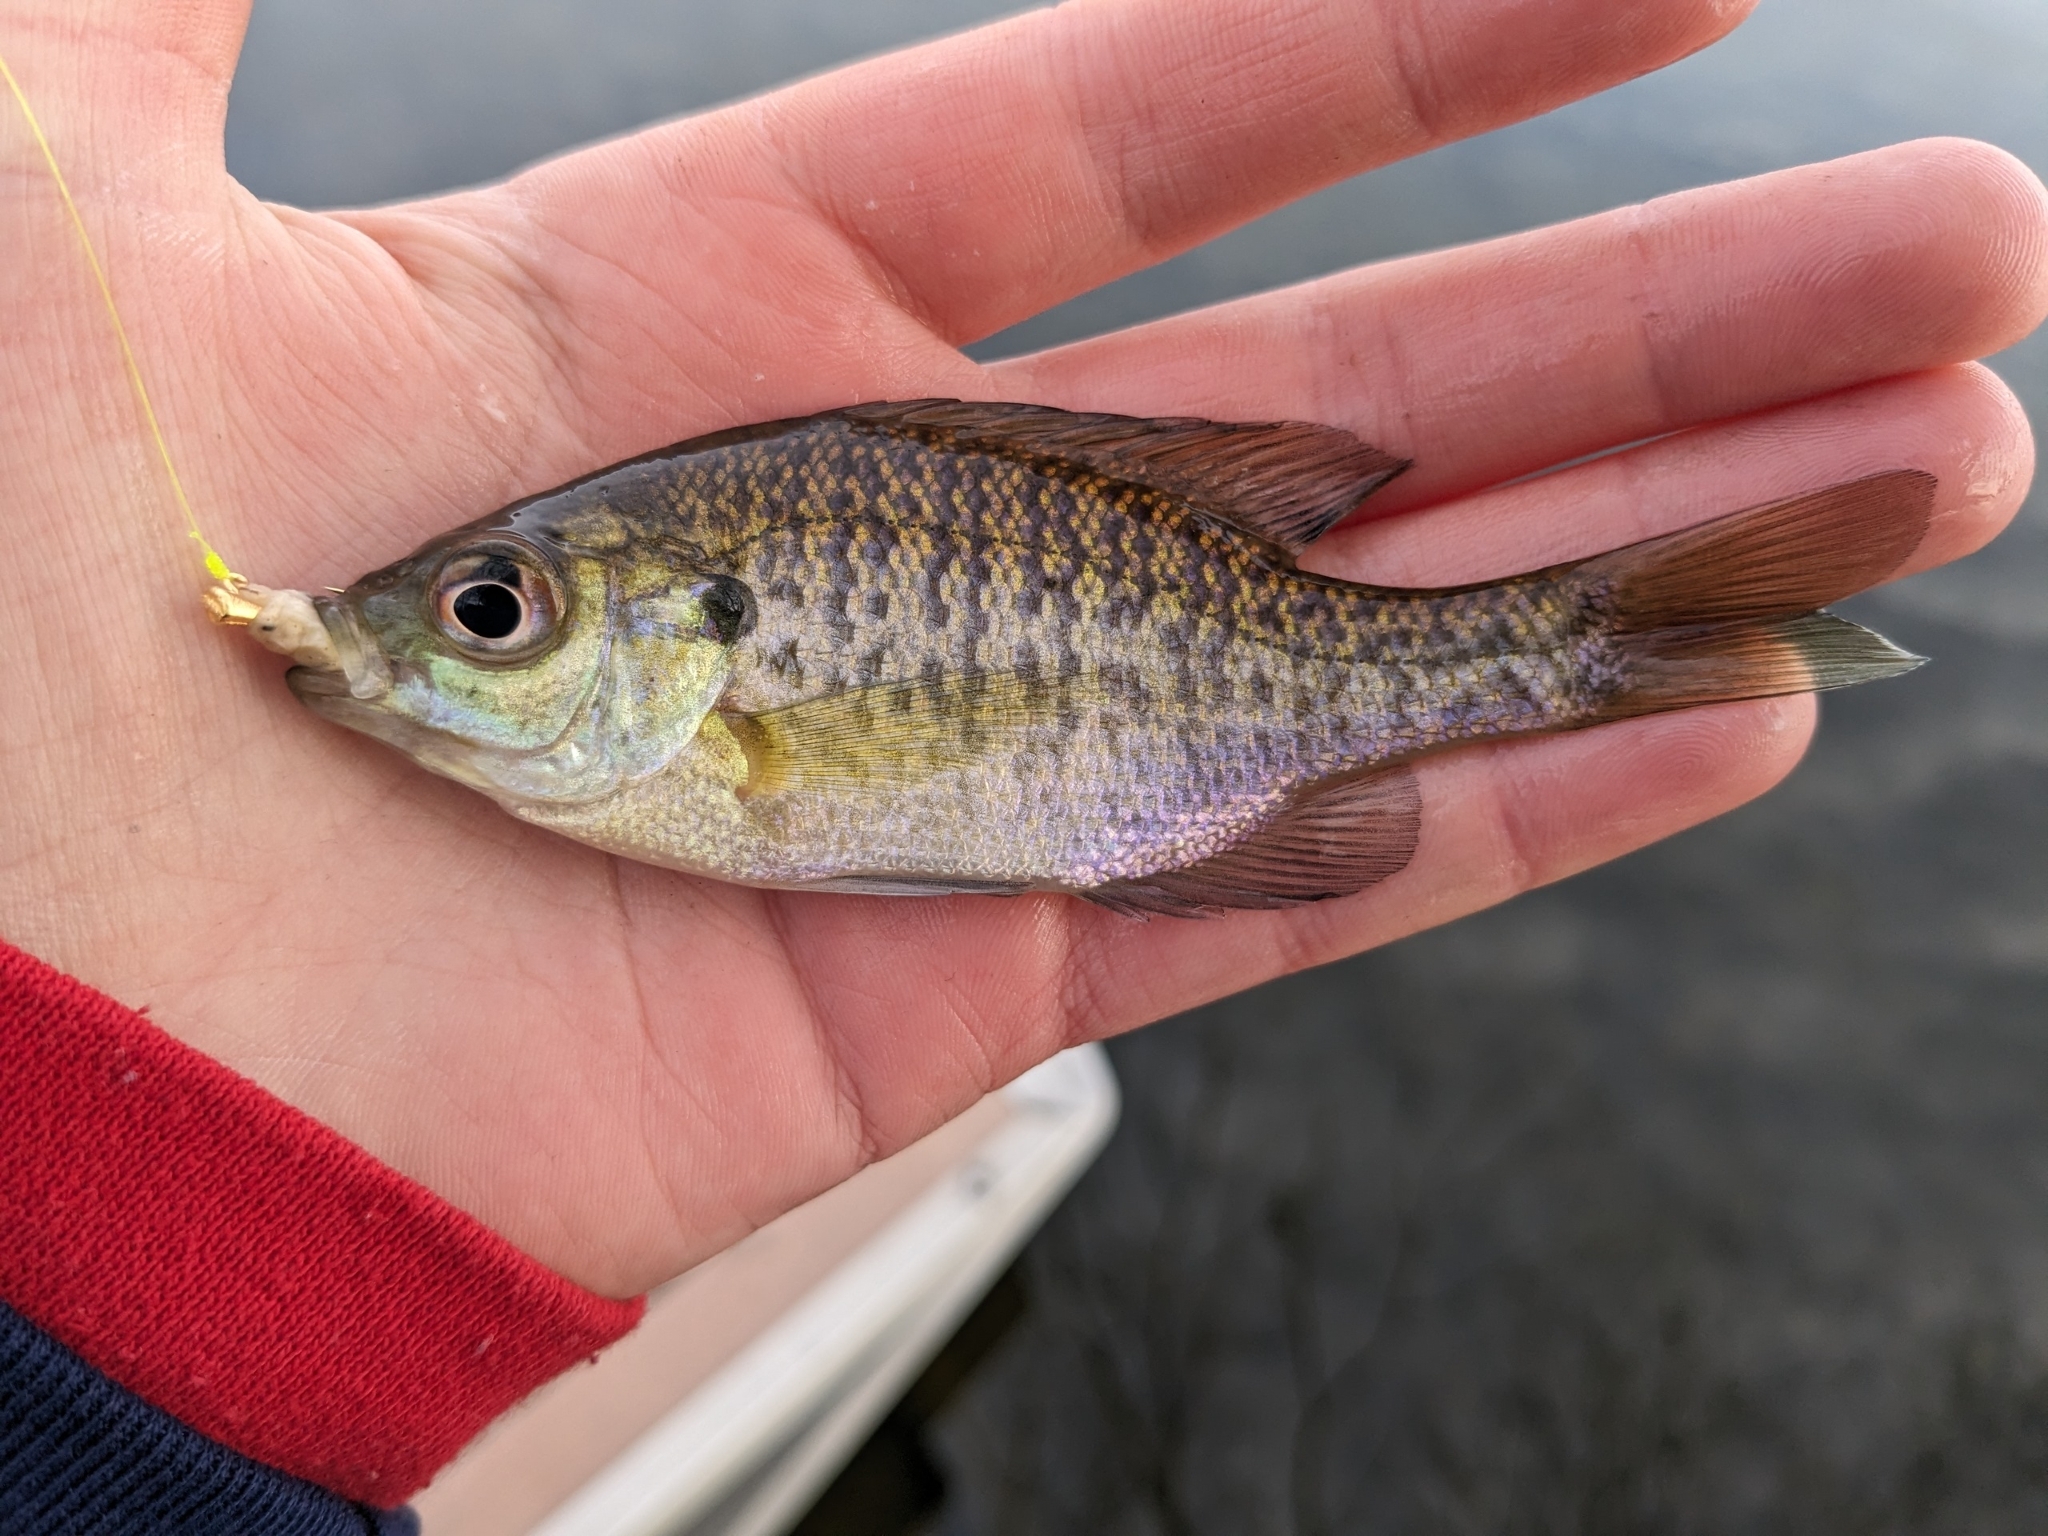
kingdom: Animalia
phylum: Chordata
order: Perciformes
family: Centrarchidae
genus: Lepomis
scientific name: Lepomis macrochirus
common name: Bluegill
